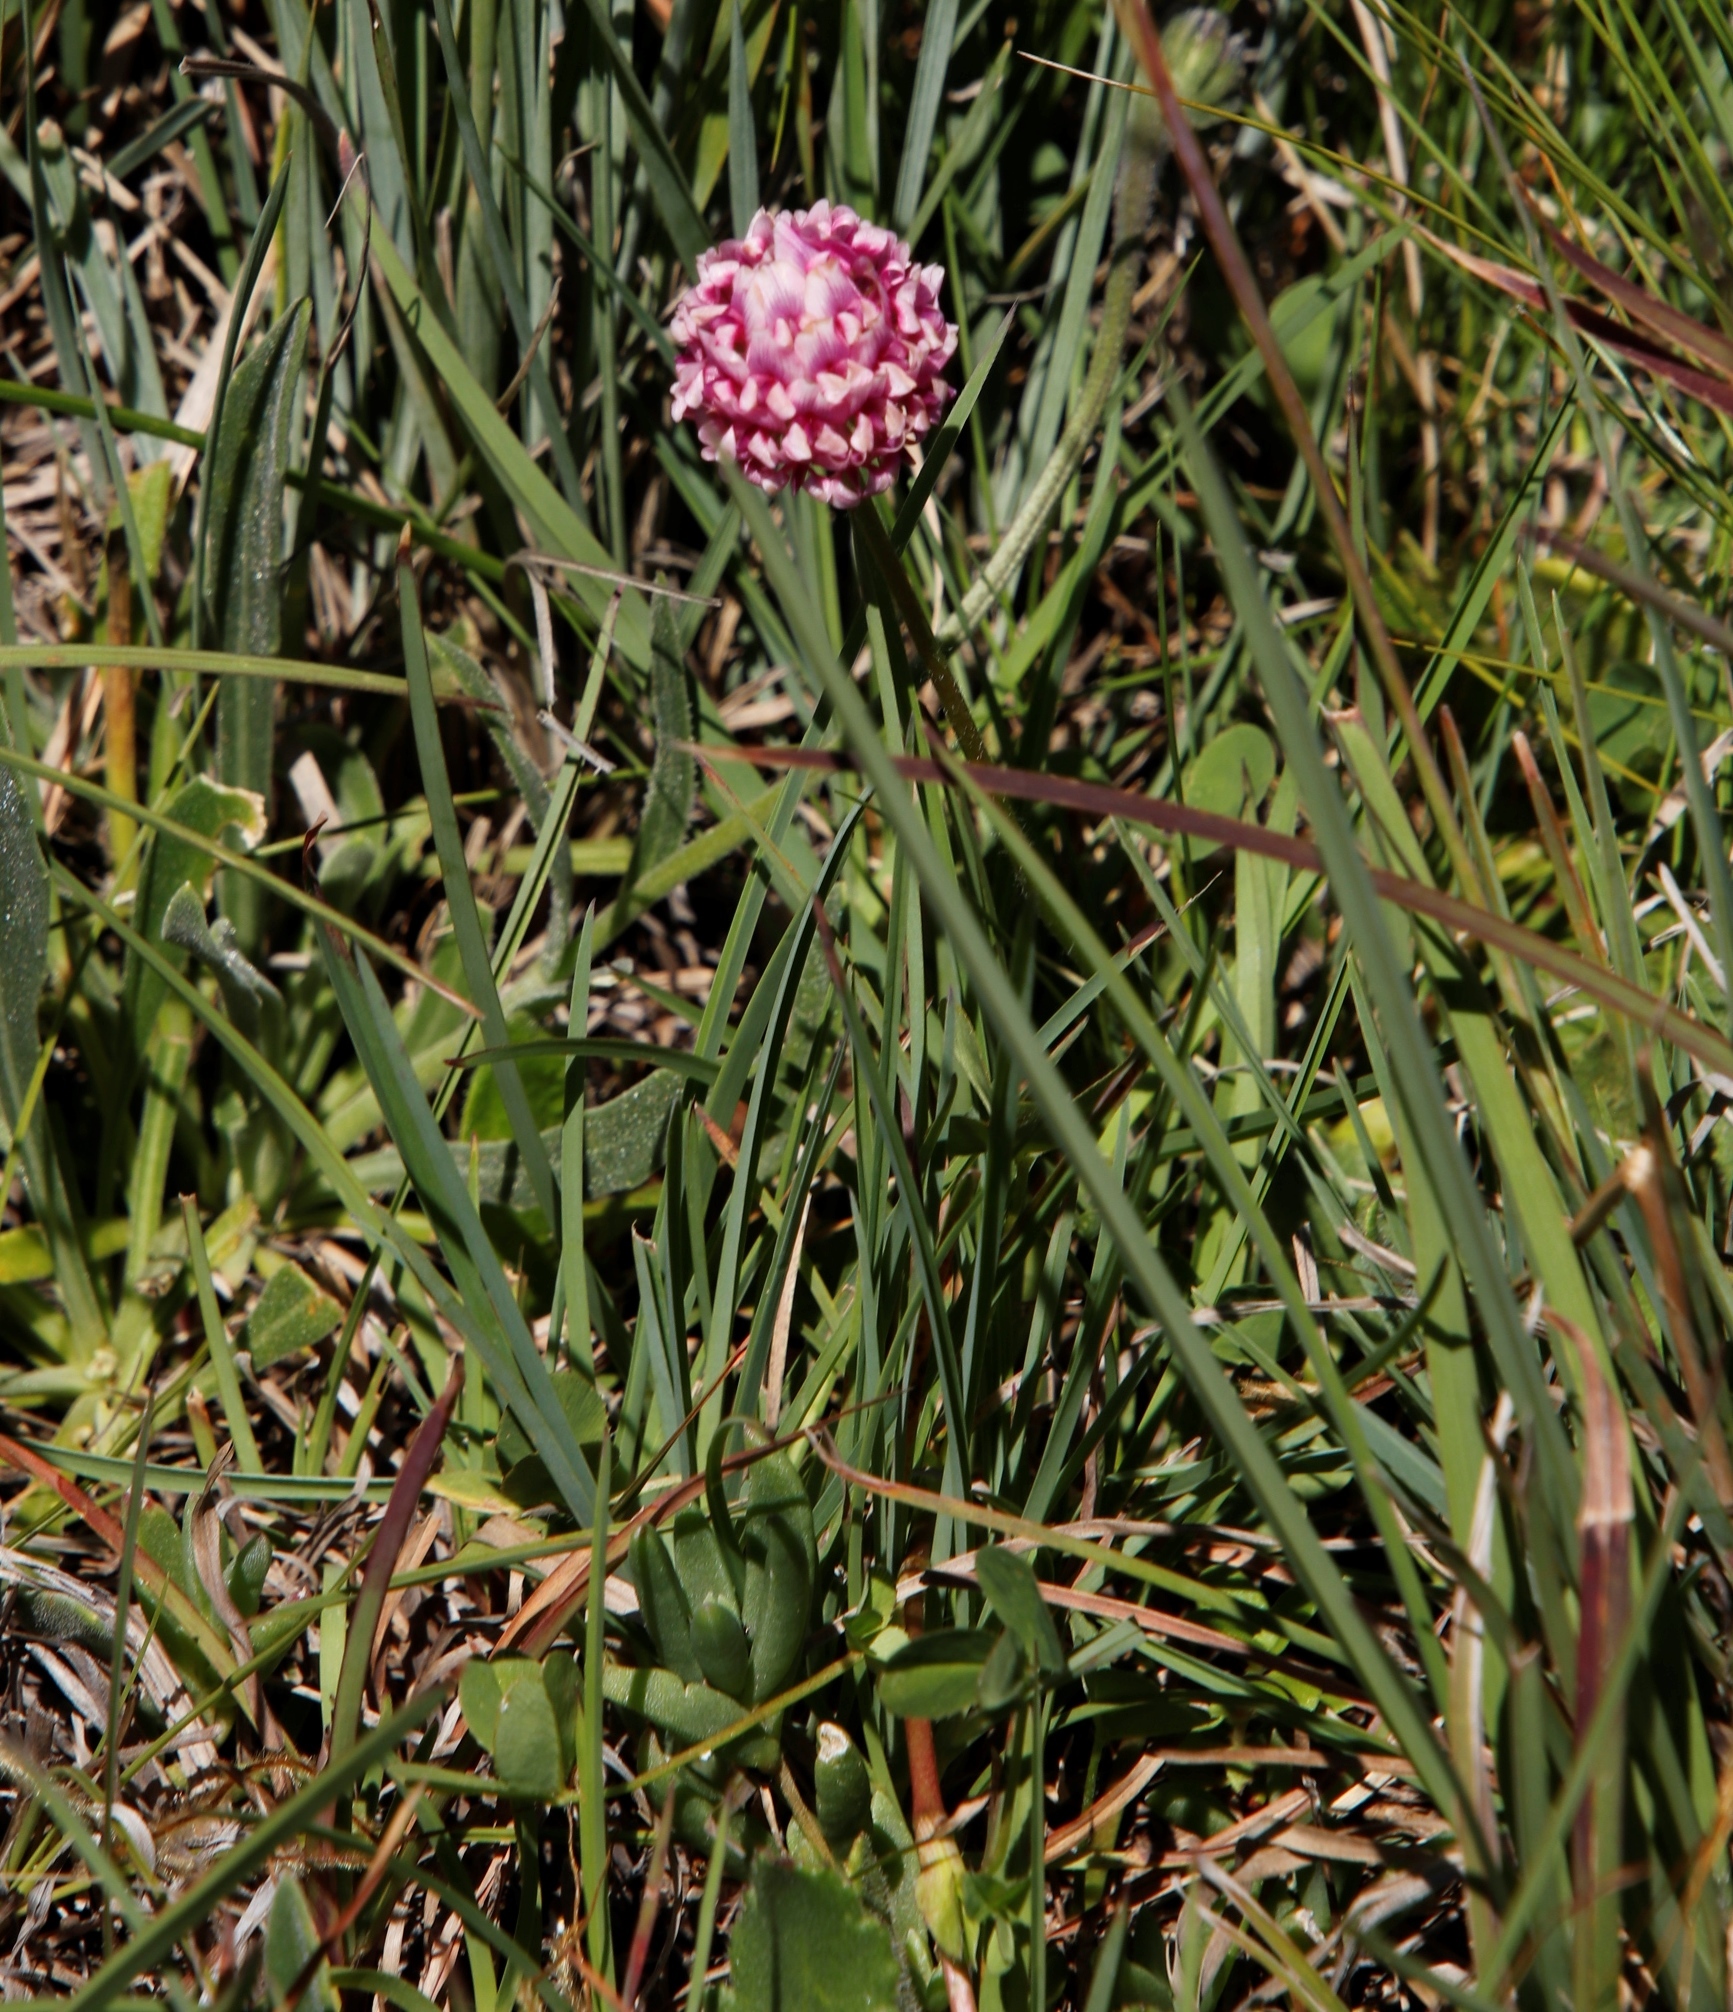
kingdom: Plantae
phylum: Tracheophyta
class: Magnoliopsida
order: Fabales
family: Fabaceae
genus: Trifolium
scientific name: Trifolium burchellianum
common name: Burchell's clover
